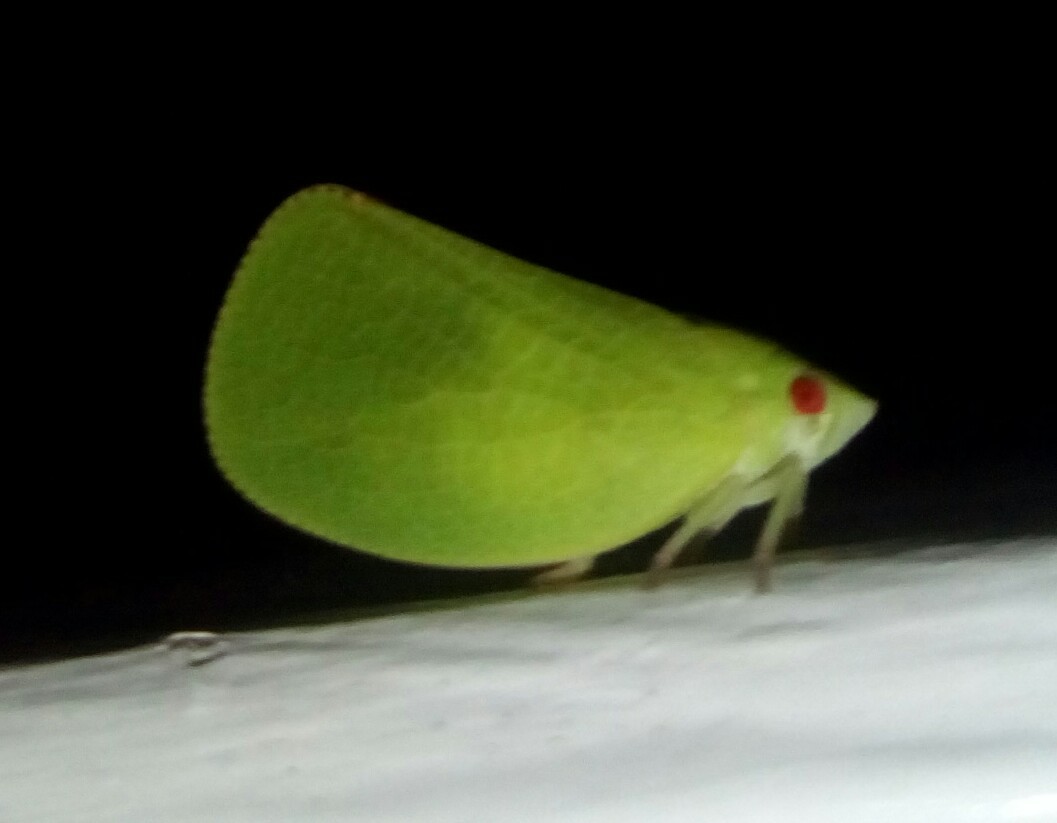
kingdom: Animalia
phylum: Arthropoda
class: Insecta
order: Hemiptera
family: Acanaloniidae
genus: Acanalonia
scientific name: Acanalonia conica
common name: Green cone-headed planthopper
